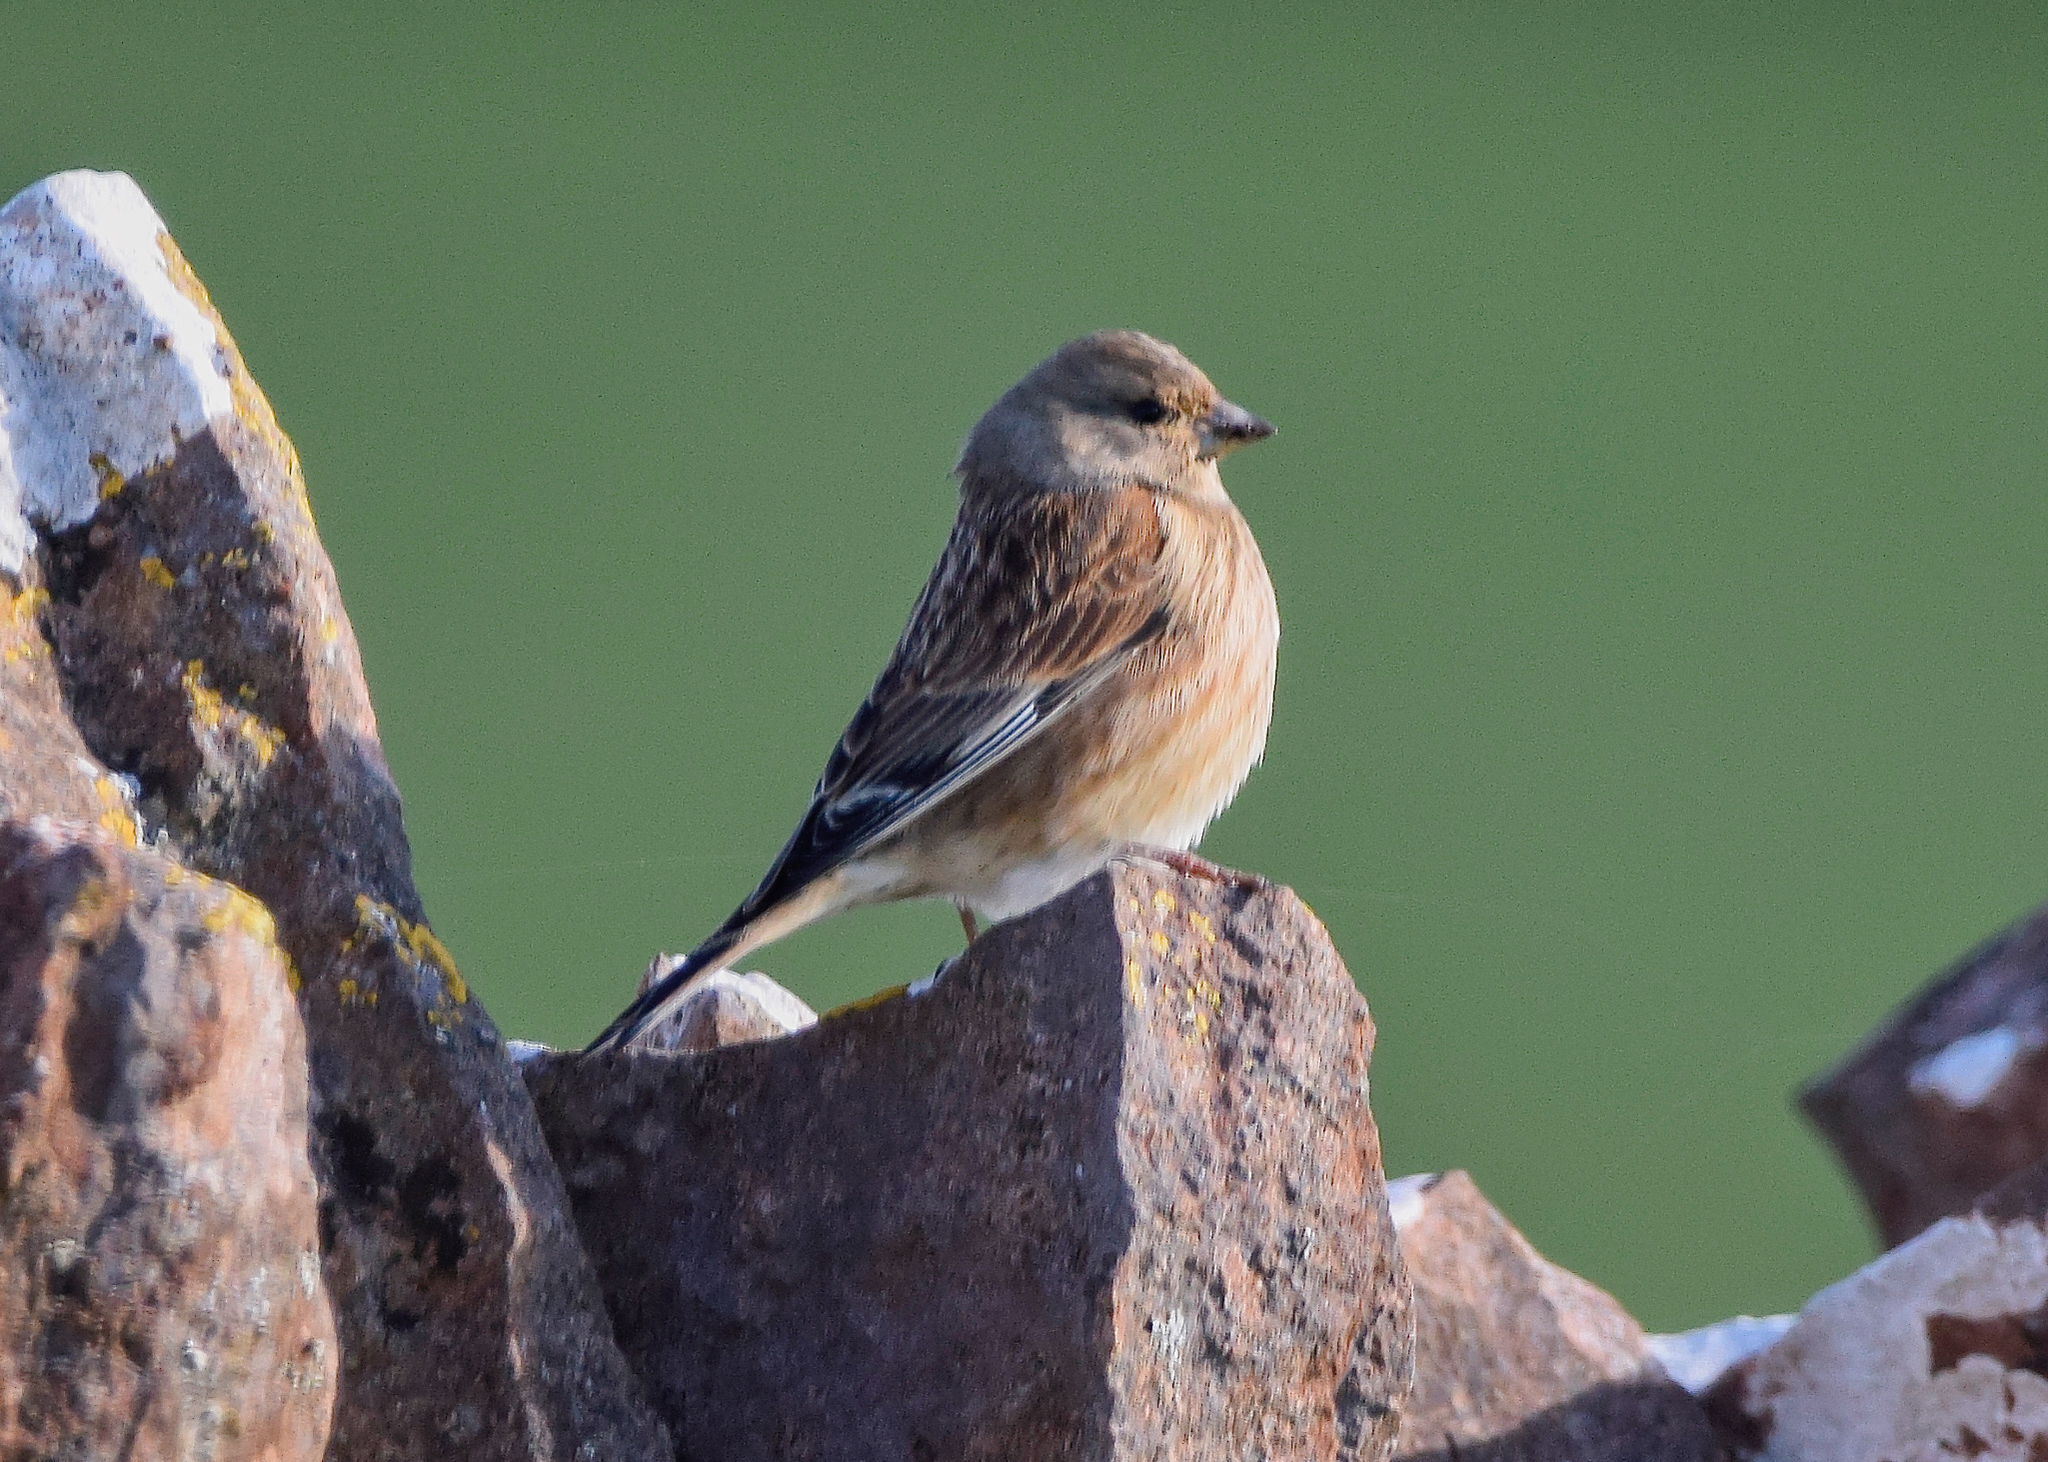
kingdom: Animalia
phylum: Chordata
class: Aves
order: Passeriformes
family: Fringillidae
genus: Linaria
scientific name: Linaria cannabina
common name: Common linnet
